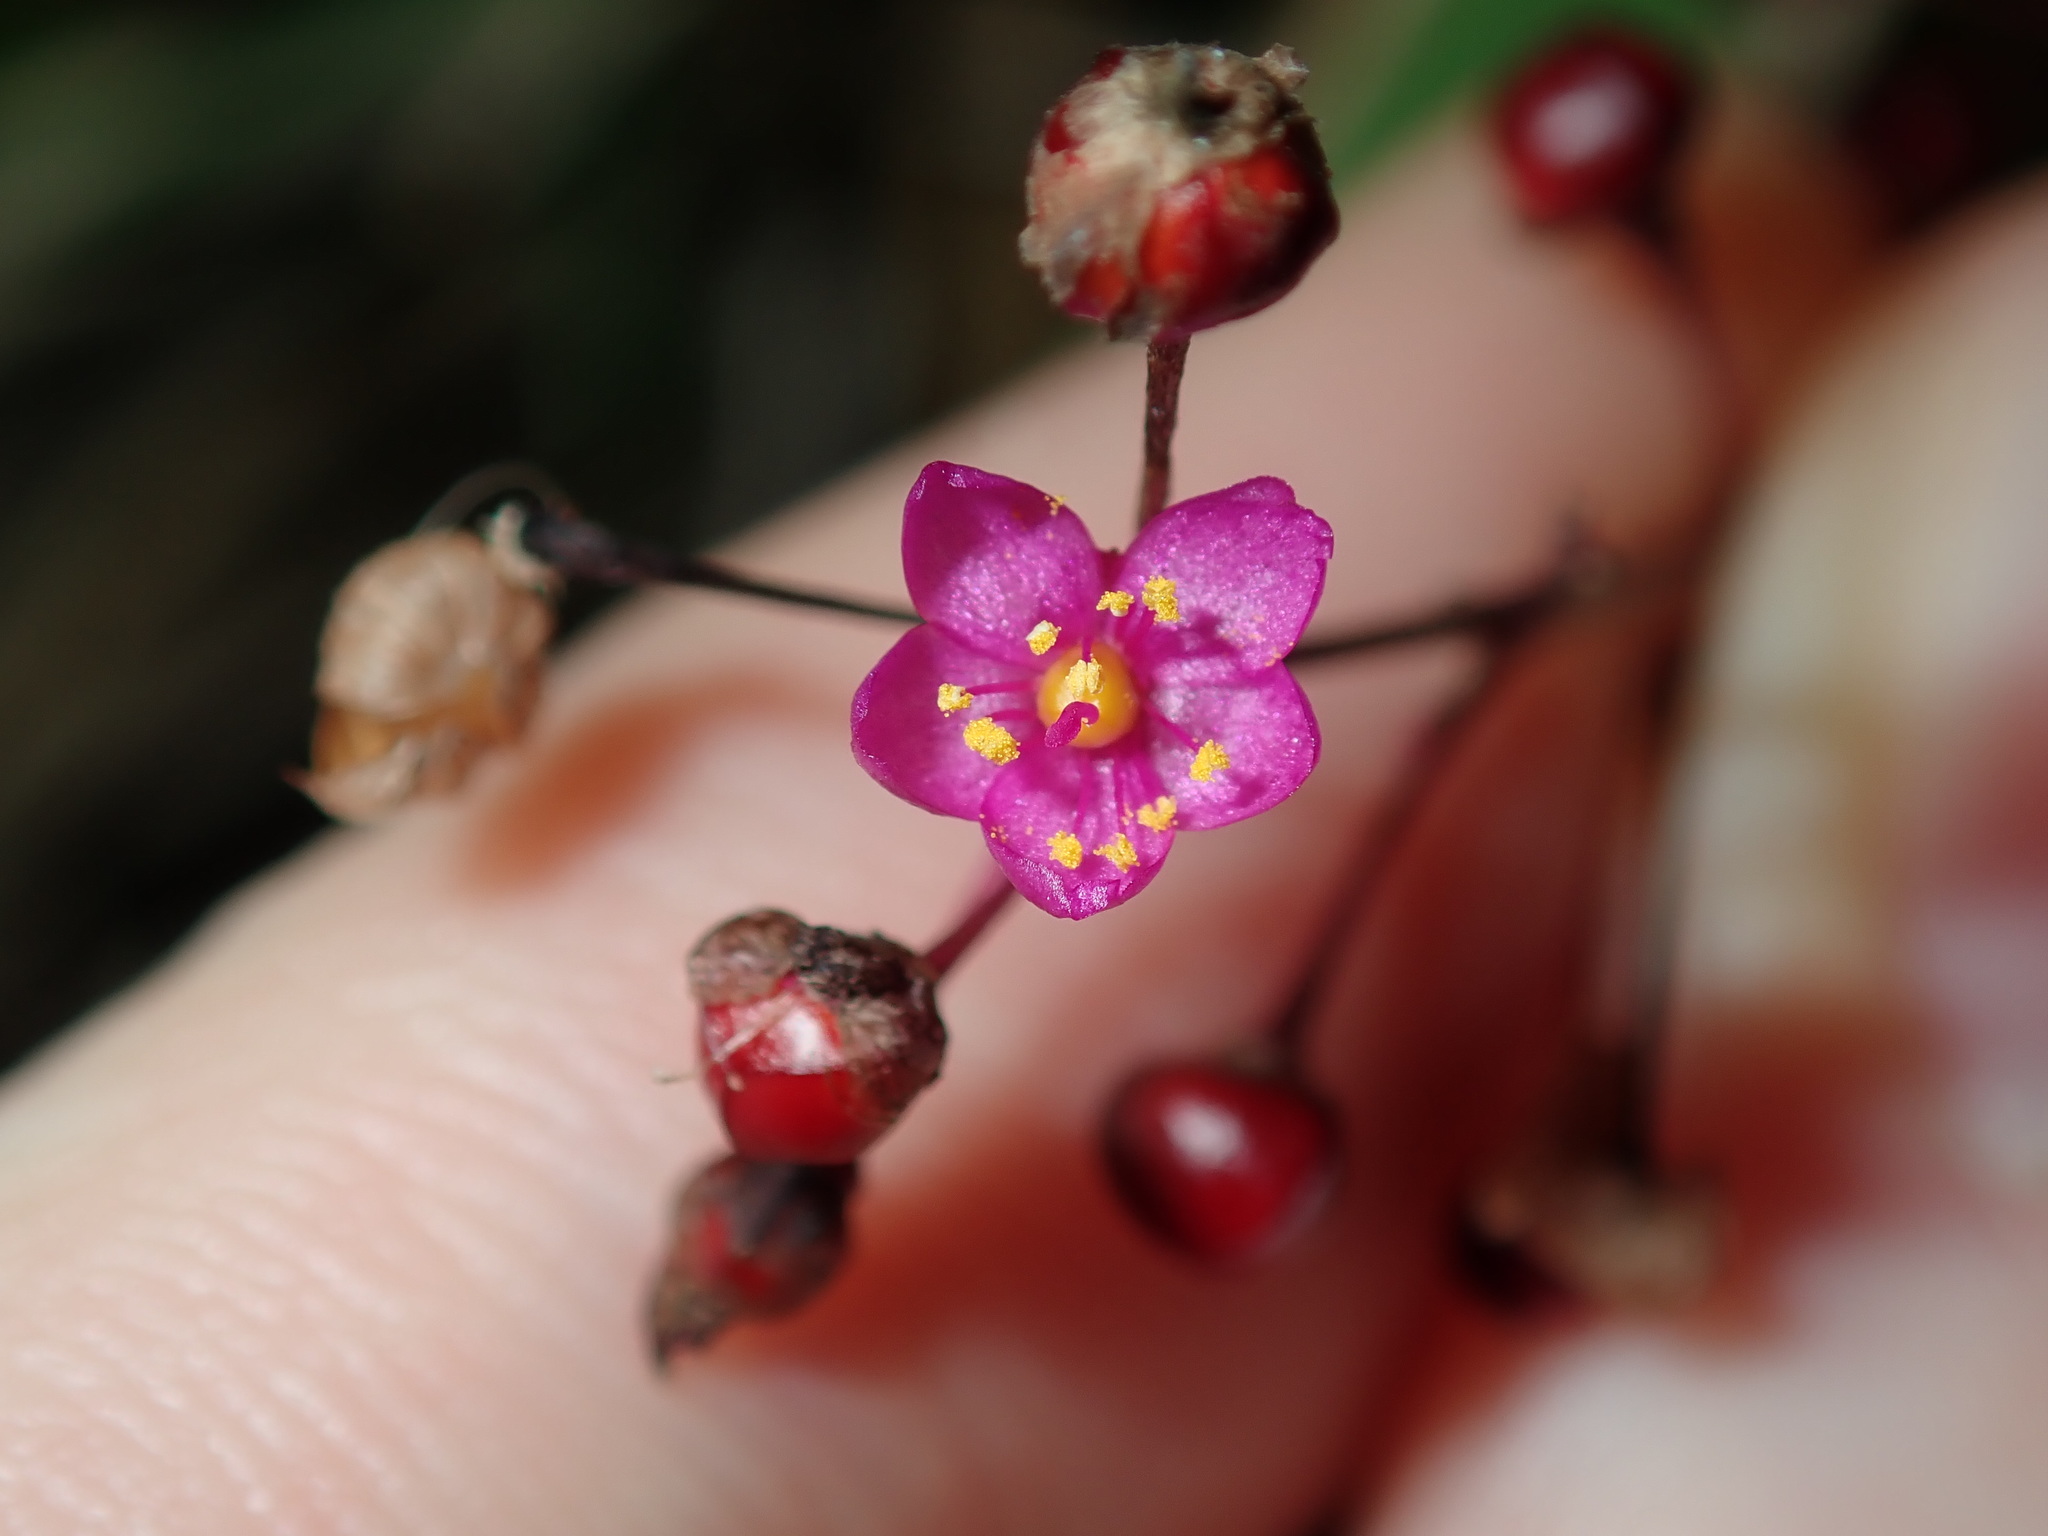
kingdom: Plantae
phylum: Tracheophyta
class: Magnoliopsida
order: Caryophyllales
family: Talinaceae
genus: Talinum
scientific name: Talinum paniculatum
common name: Jewels of opar
